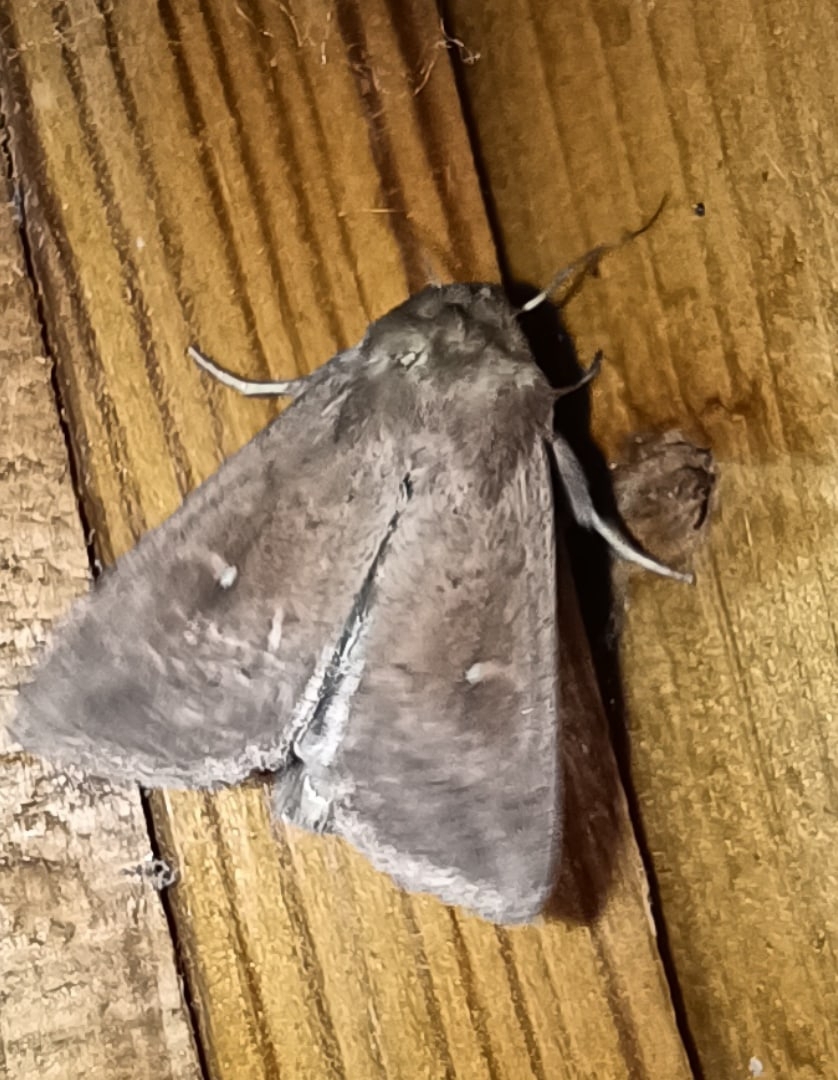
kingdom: Animalia
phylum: Arthropoda
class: Insecta
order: Lepidoptera
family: Noctuidae
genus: Mythimna
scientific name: Mythimna ferrago
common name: Clay
